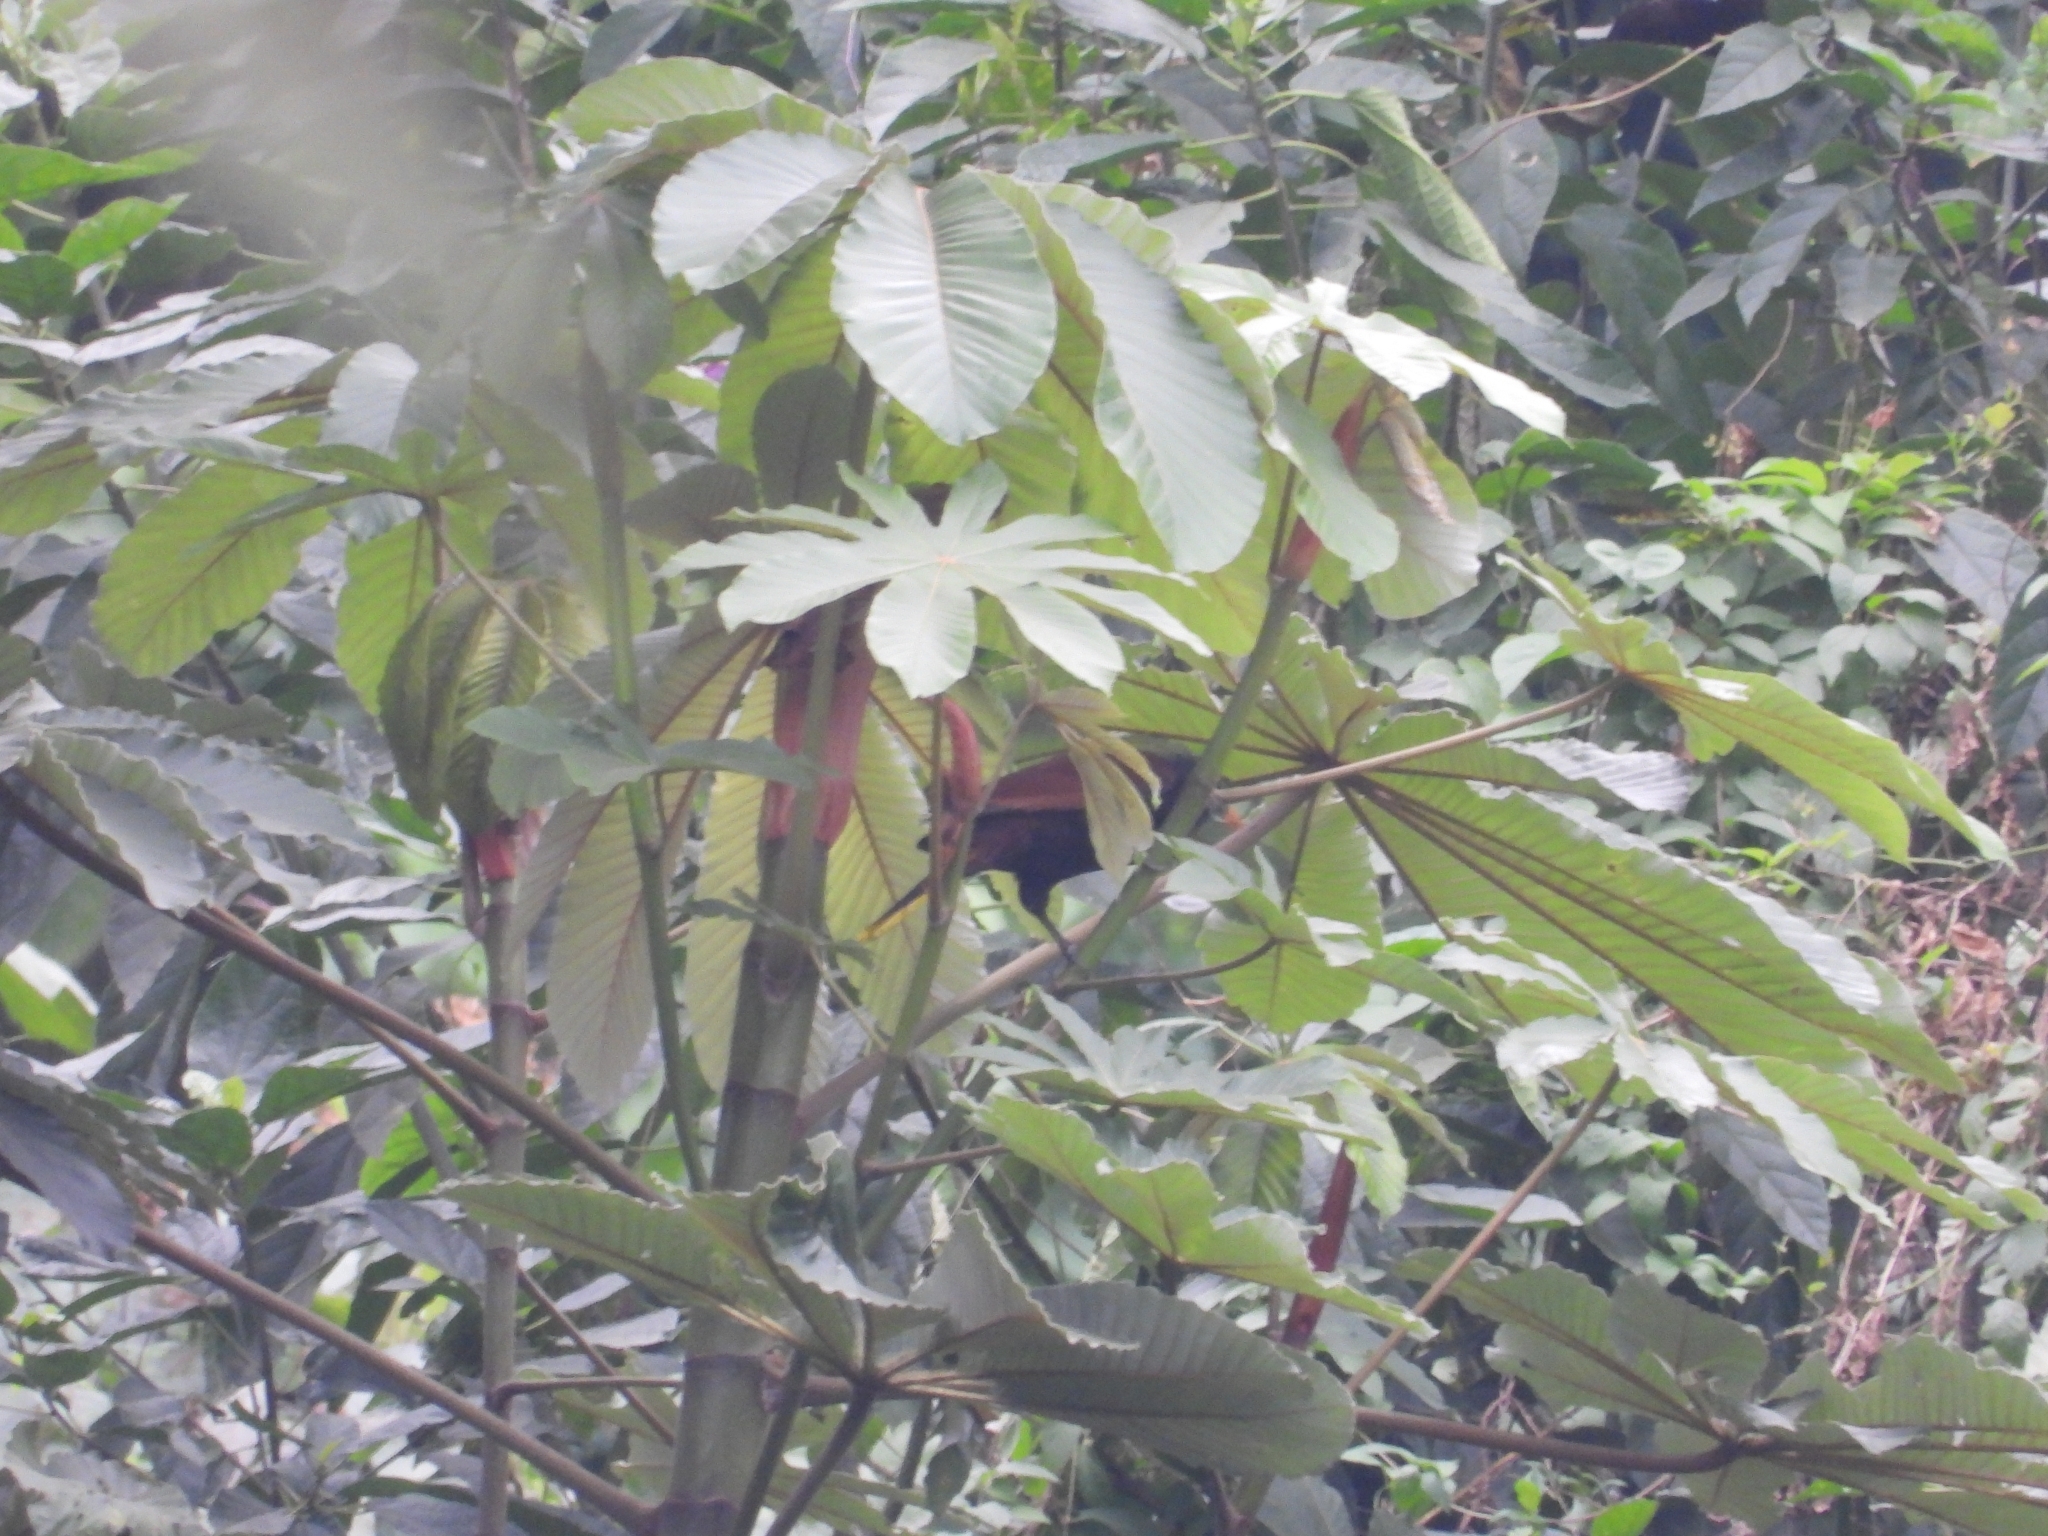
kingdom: Plantae
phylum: Tracheophyta
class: Magnoliopsida
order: Rosales
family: Urticaceae
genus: Cecropia
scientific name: Cecropia obtusifolia
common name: Trumpet tree
